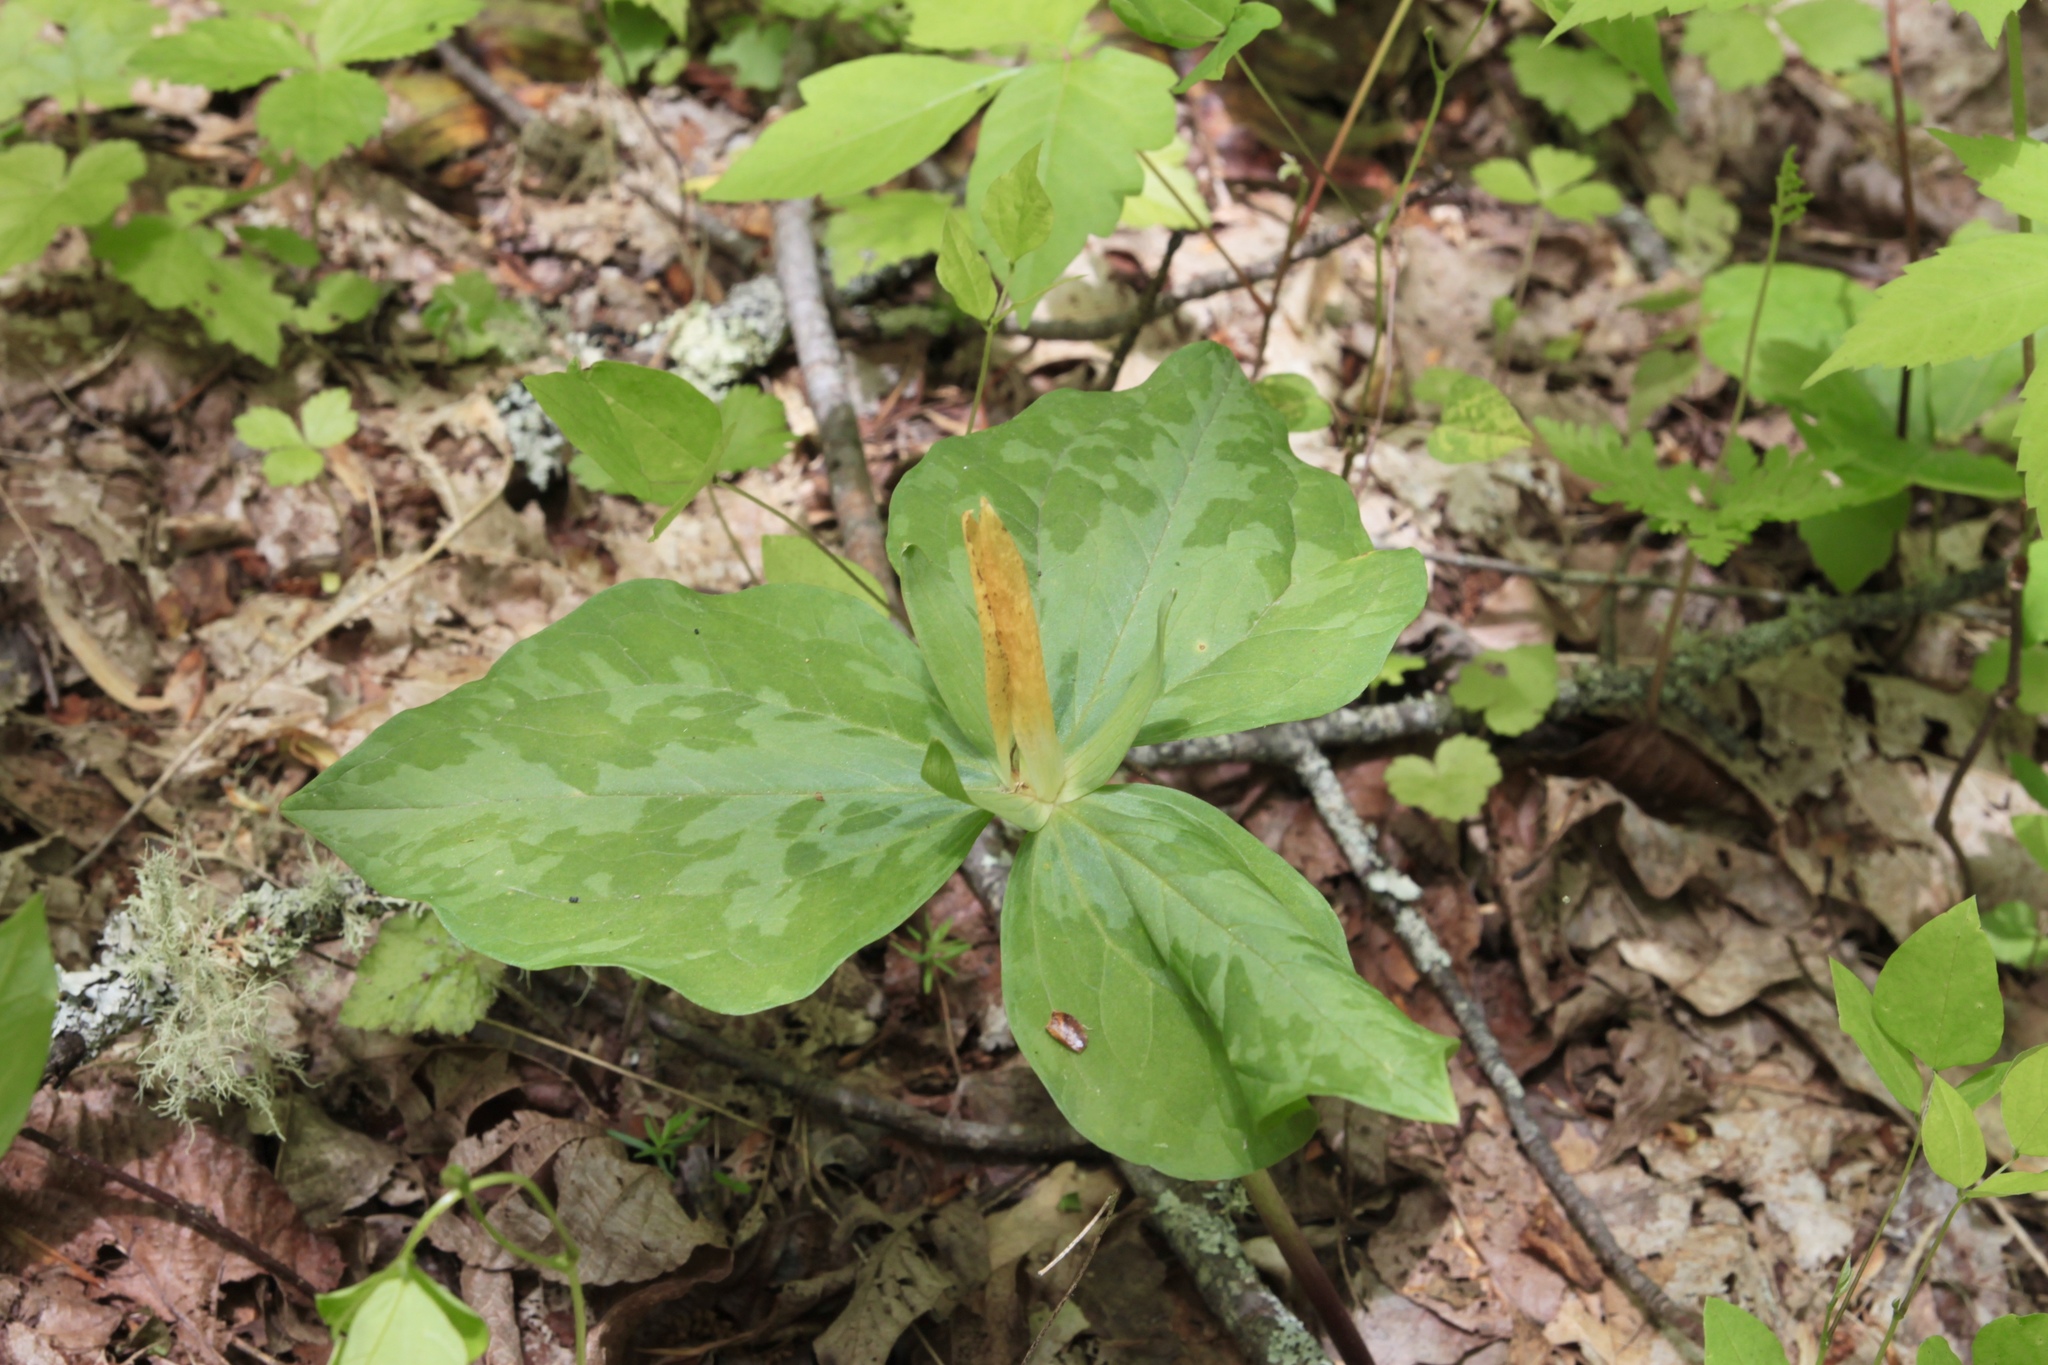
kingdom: Plantae
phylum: Tracheophyta
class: Liliopsida
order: Liliales
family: Melanthiaceae
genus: Trillium
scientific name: Trillium luteum
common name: Wax trillium
